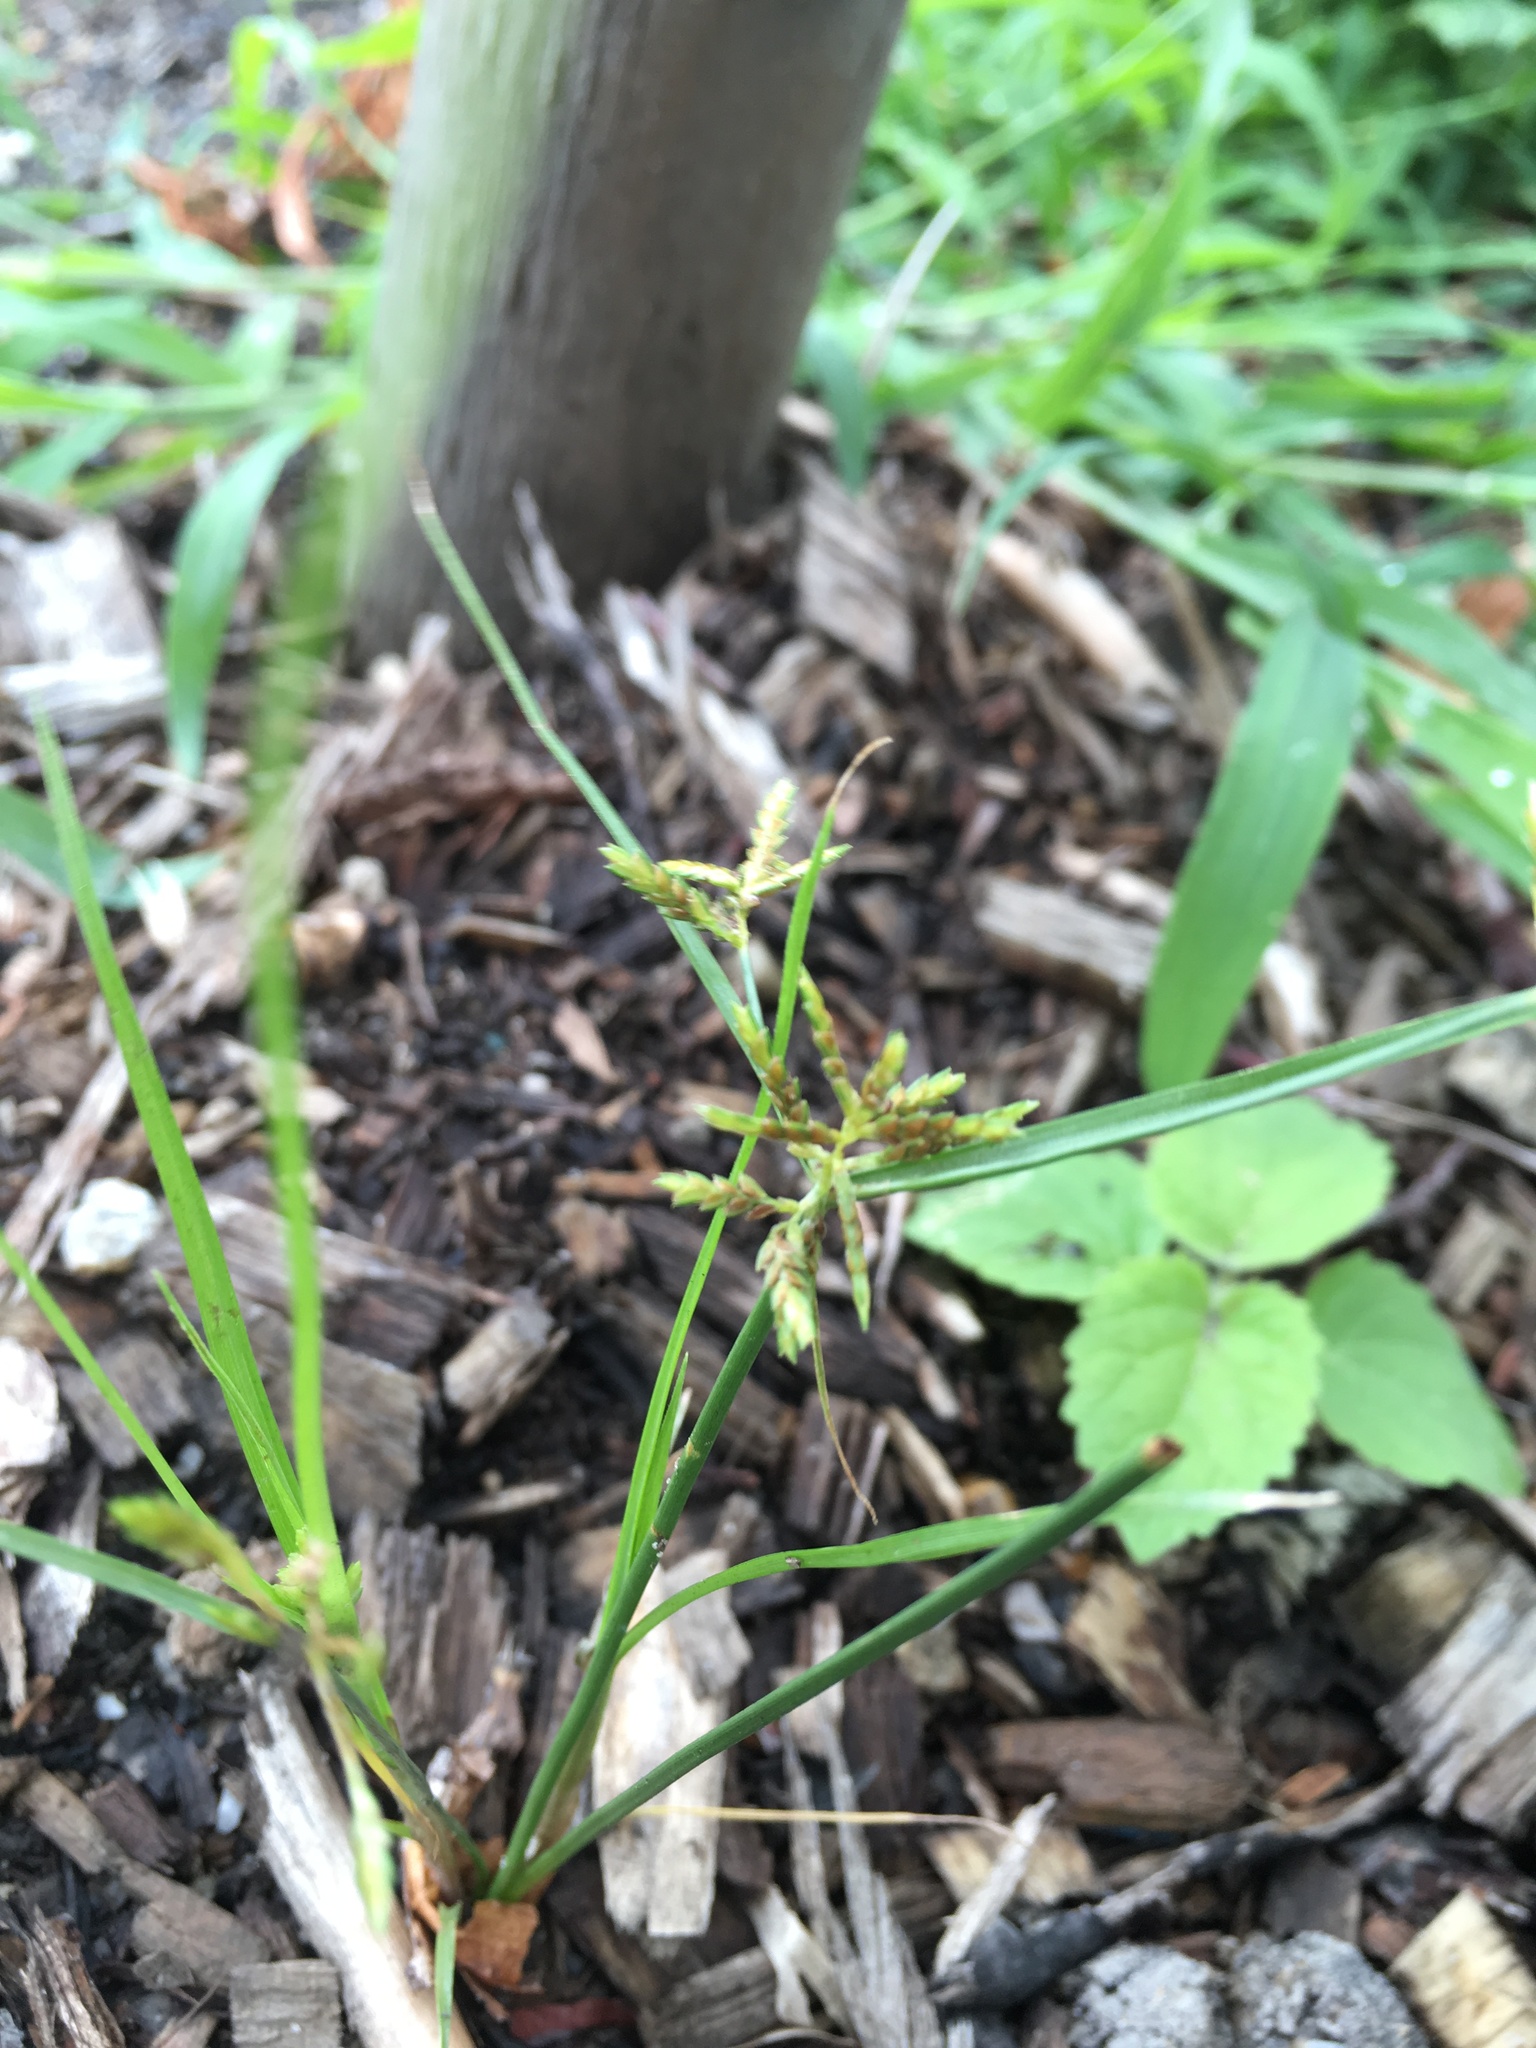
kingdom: Plantae
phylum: Tracheophyta
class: Liliopsida
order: Poales
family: Cyperaceae
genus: Cyperus
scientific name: Cyperus microiria
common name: Asian flatsedge
